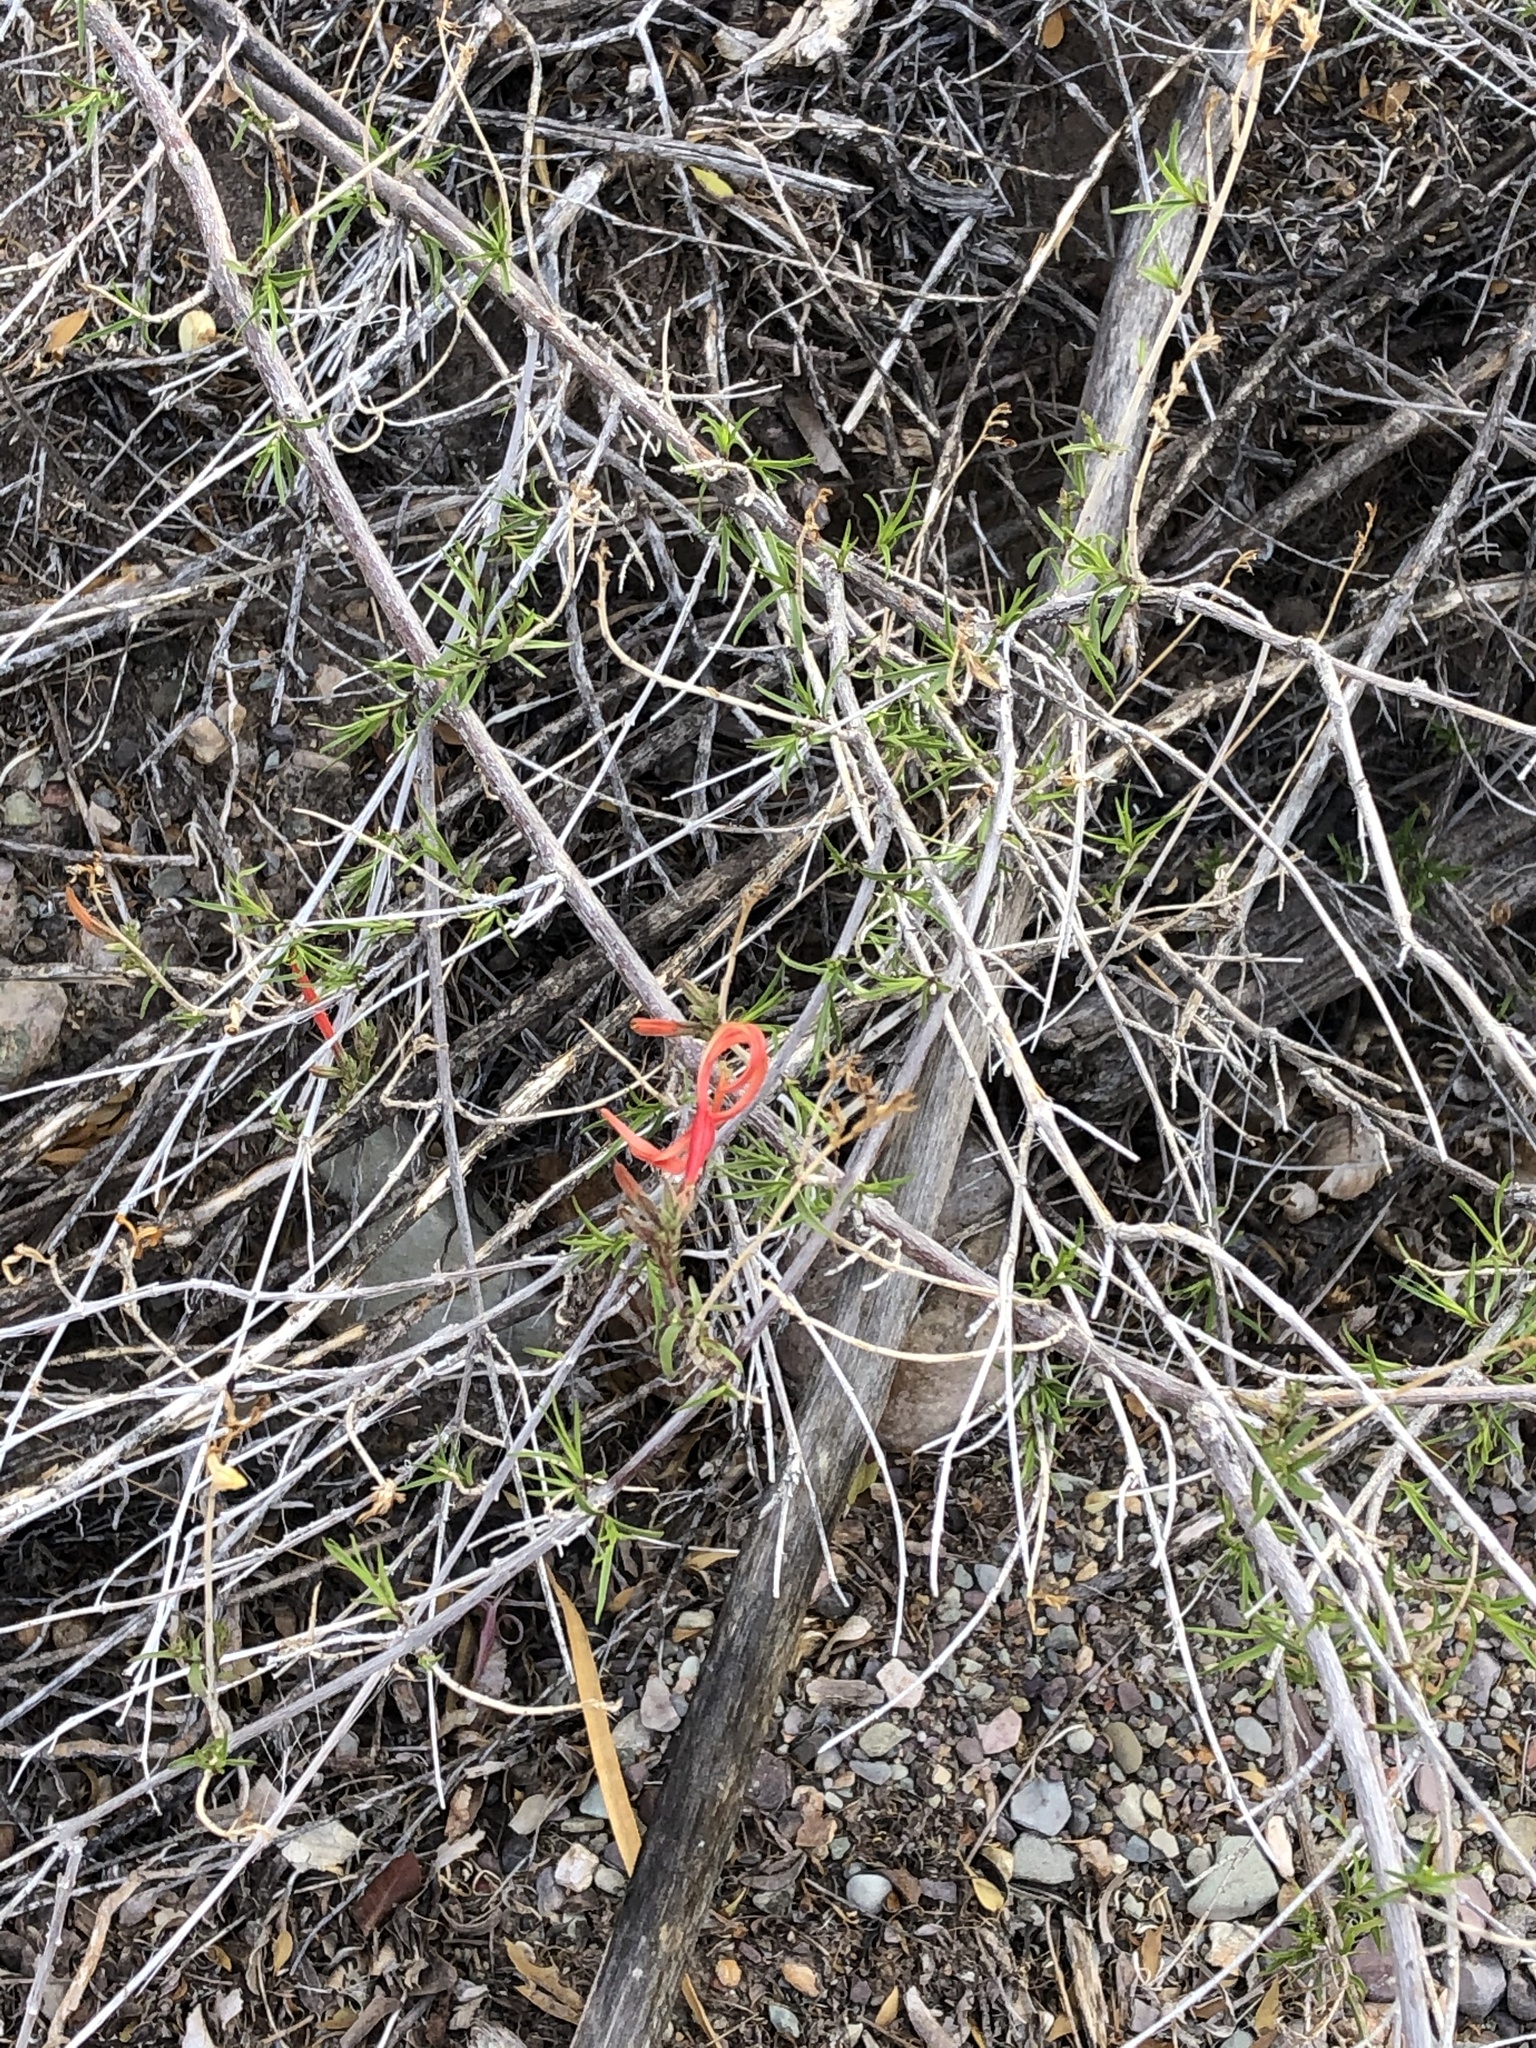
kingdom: Plantae
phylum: Tracheophyta
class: Magnoliopsida
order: Lamiales
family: Acanthaceae
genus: Anisacanthus
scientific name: Anisacanthus linearis
